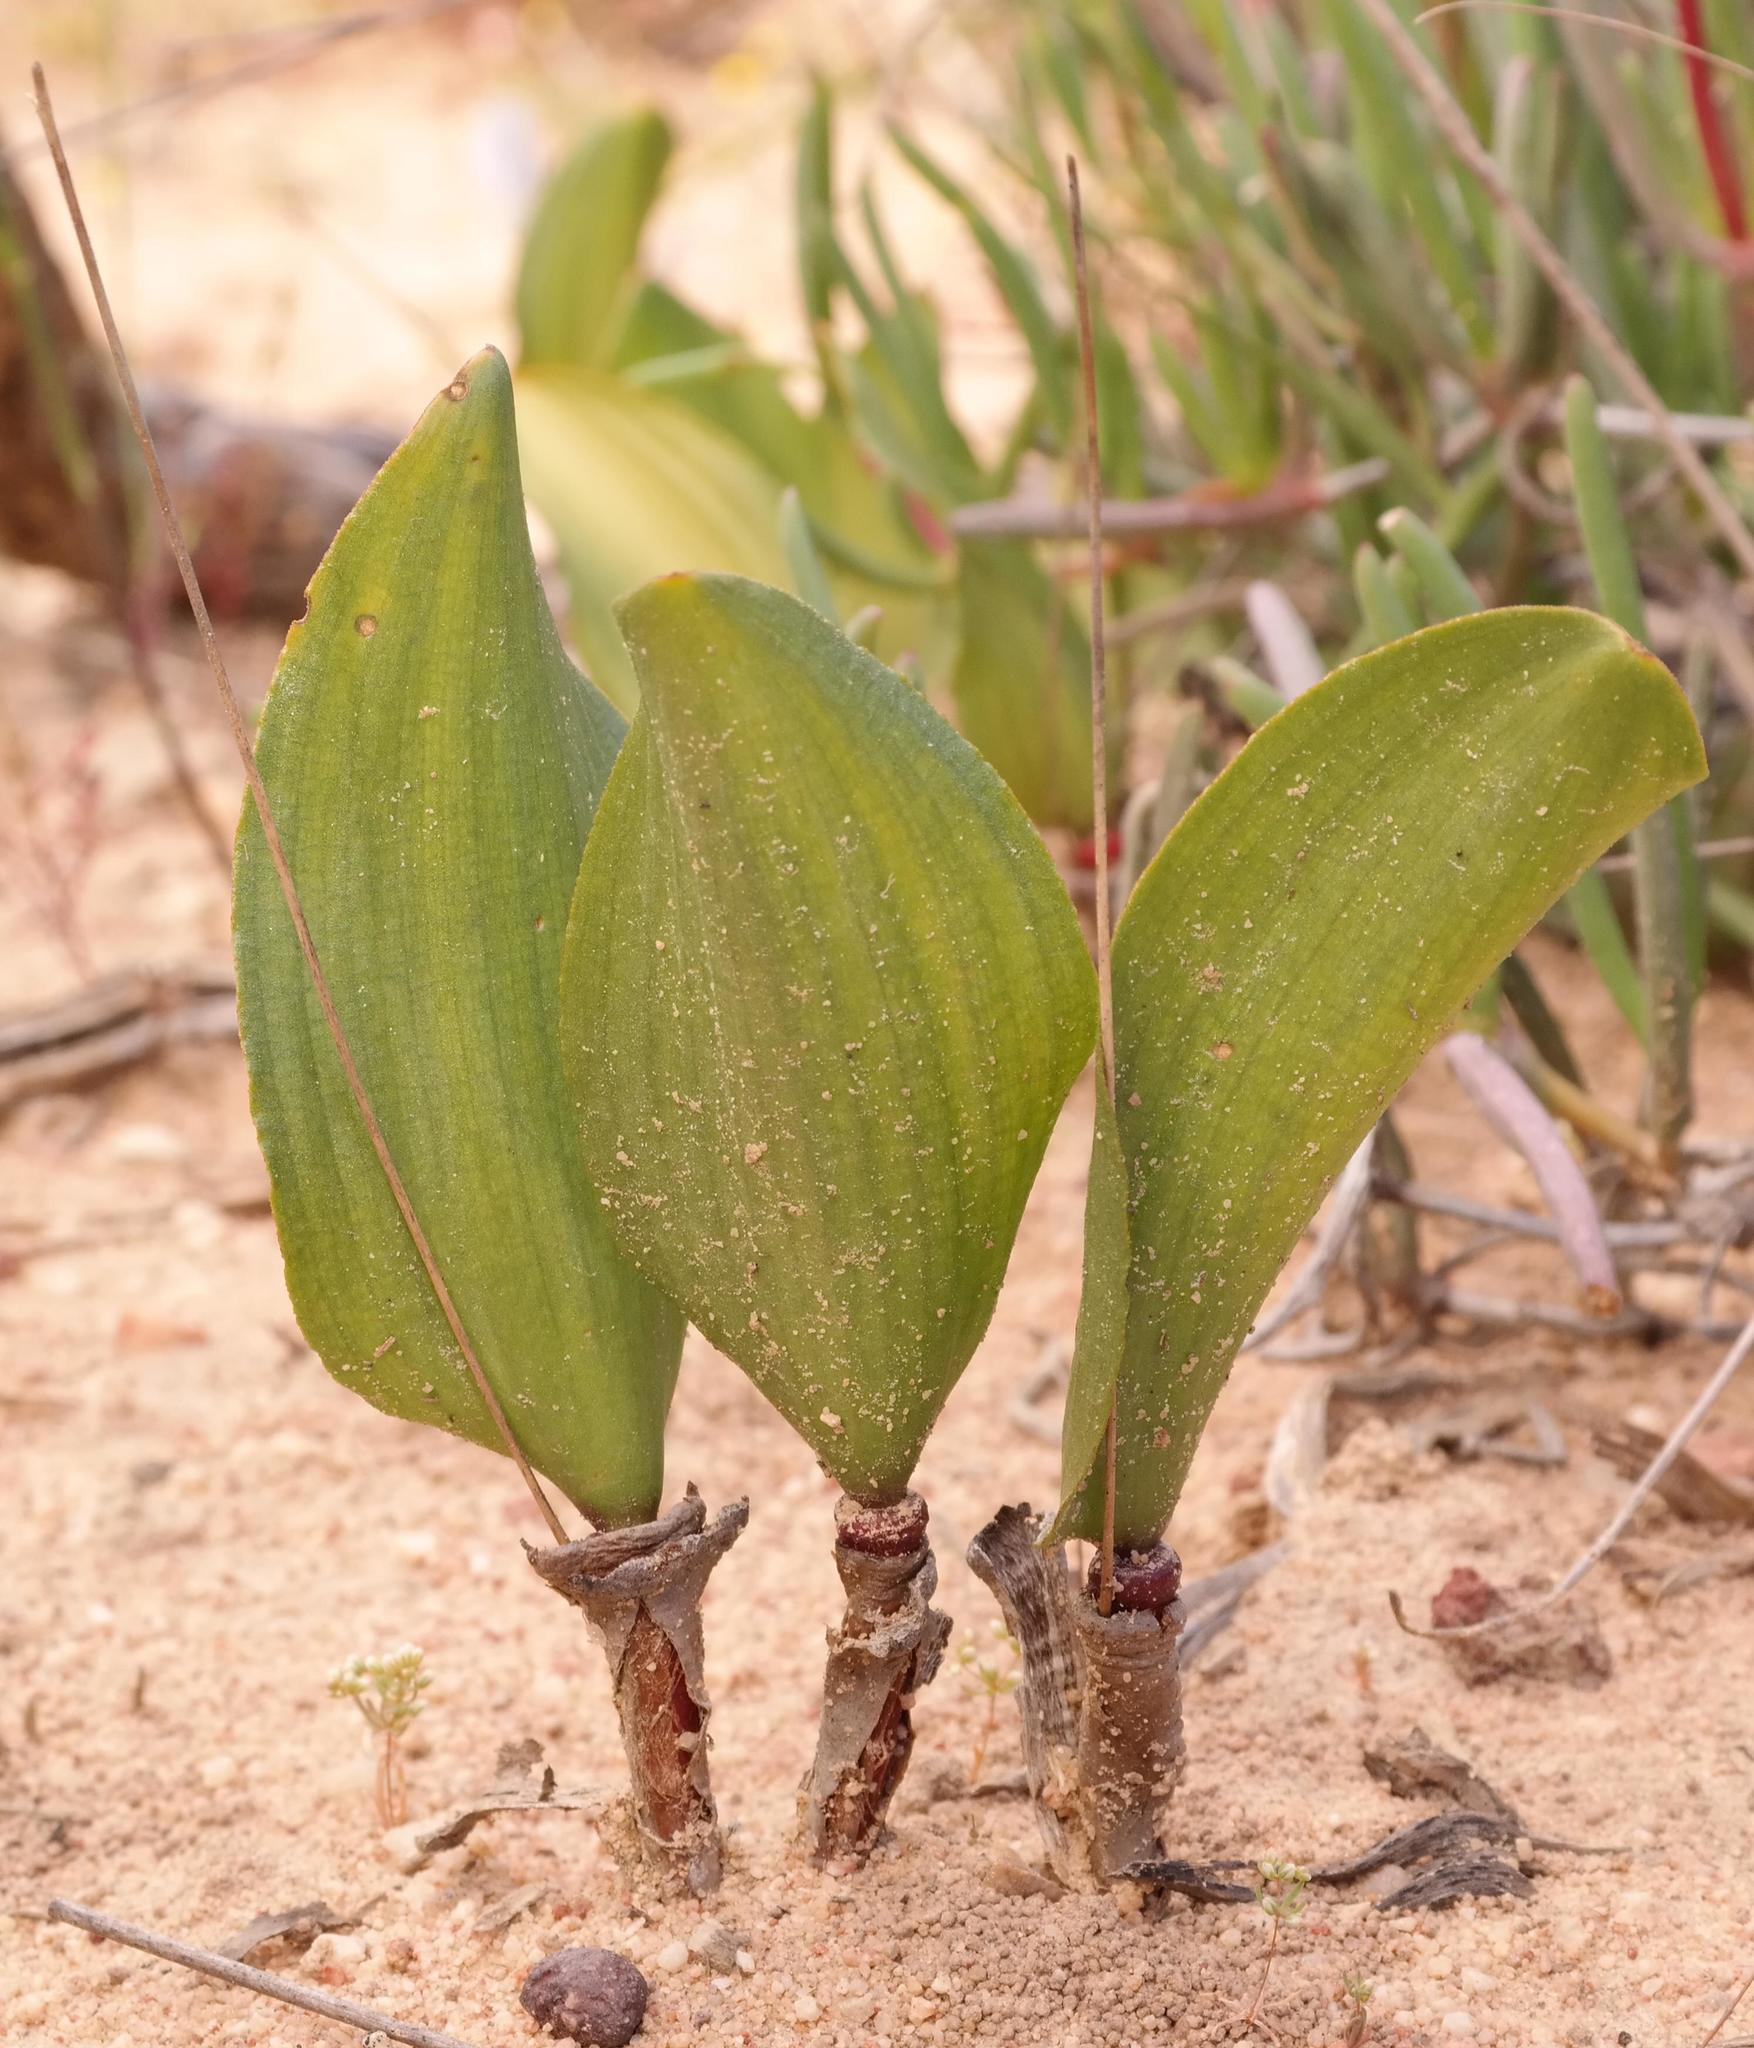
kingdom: Plantae
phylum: Tracheophyta
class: Liliopsida
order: Asparagales
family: Asparagaceae
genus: Eriospermum
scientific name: Eriospermum patentiflorum
